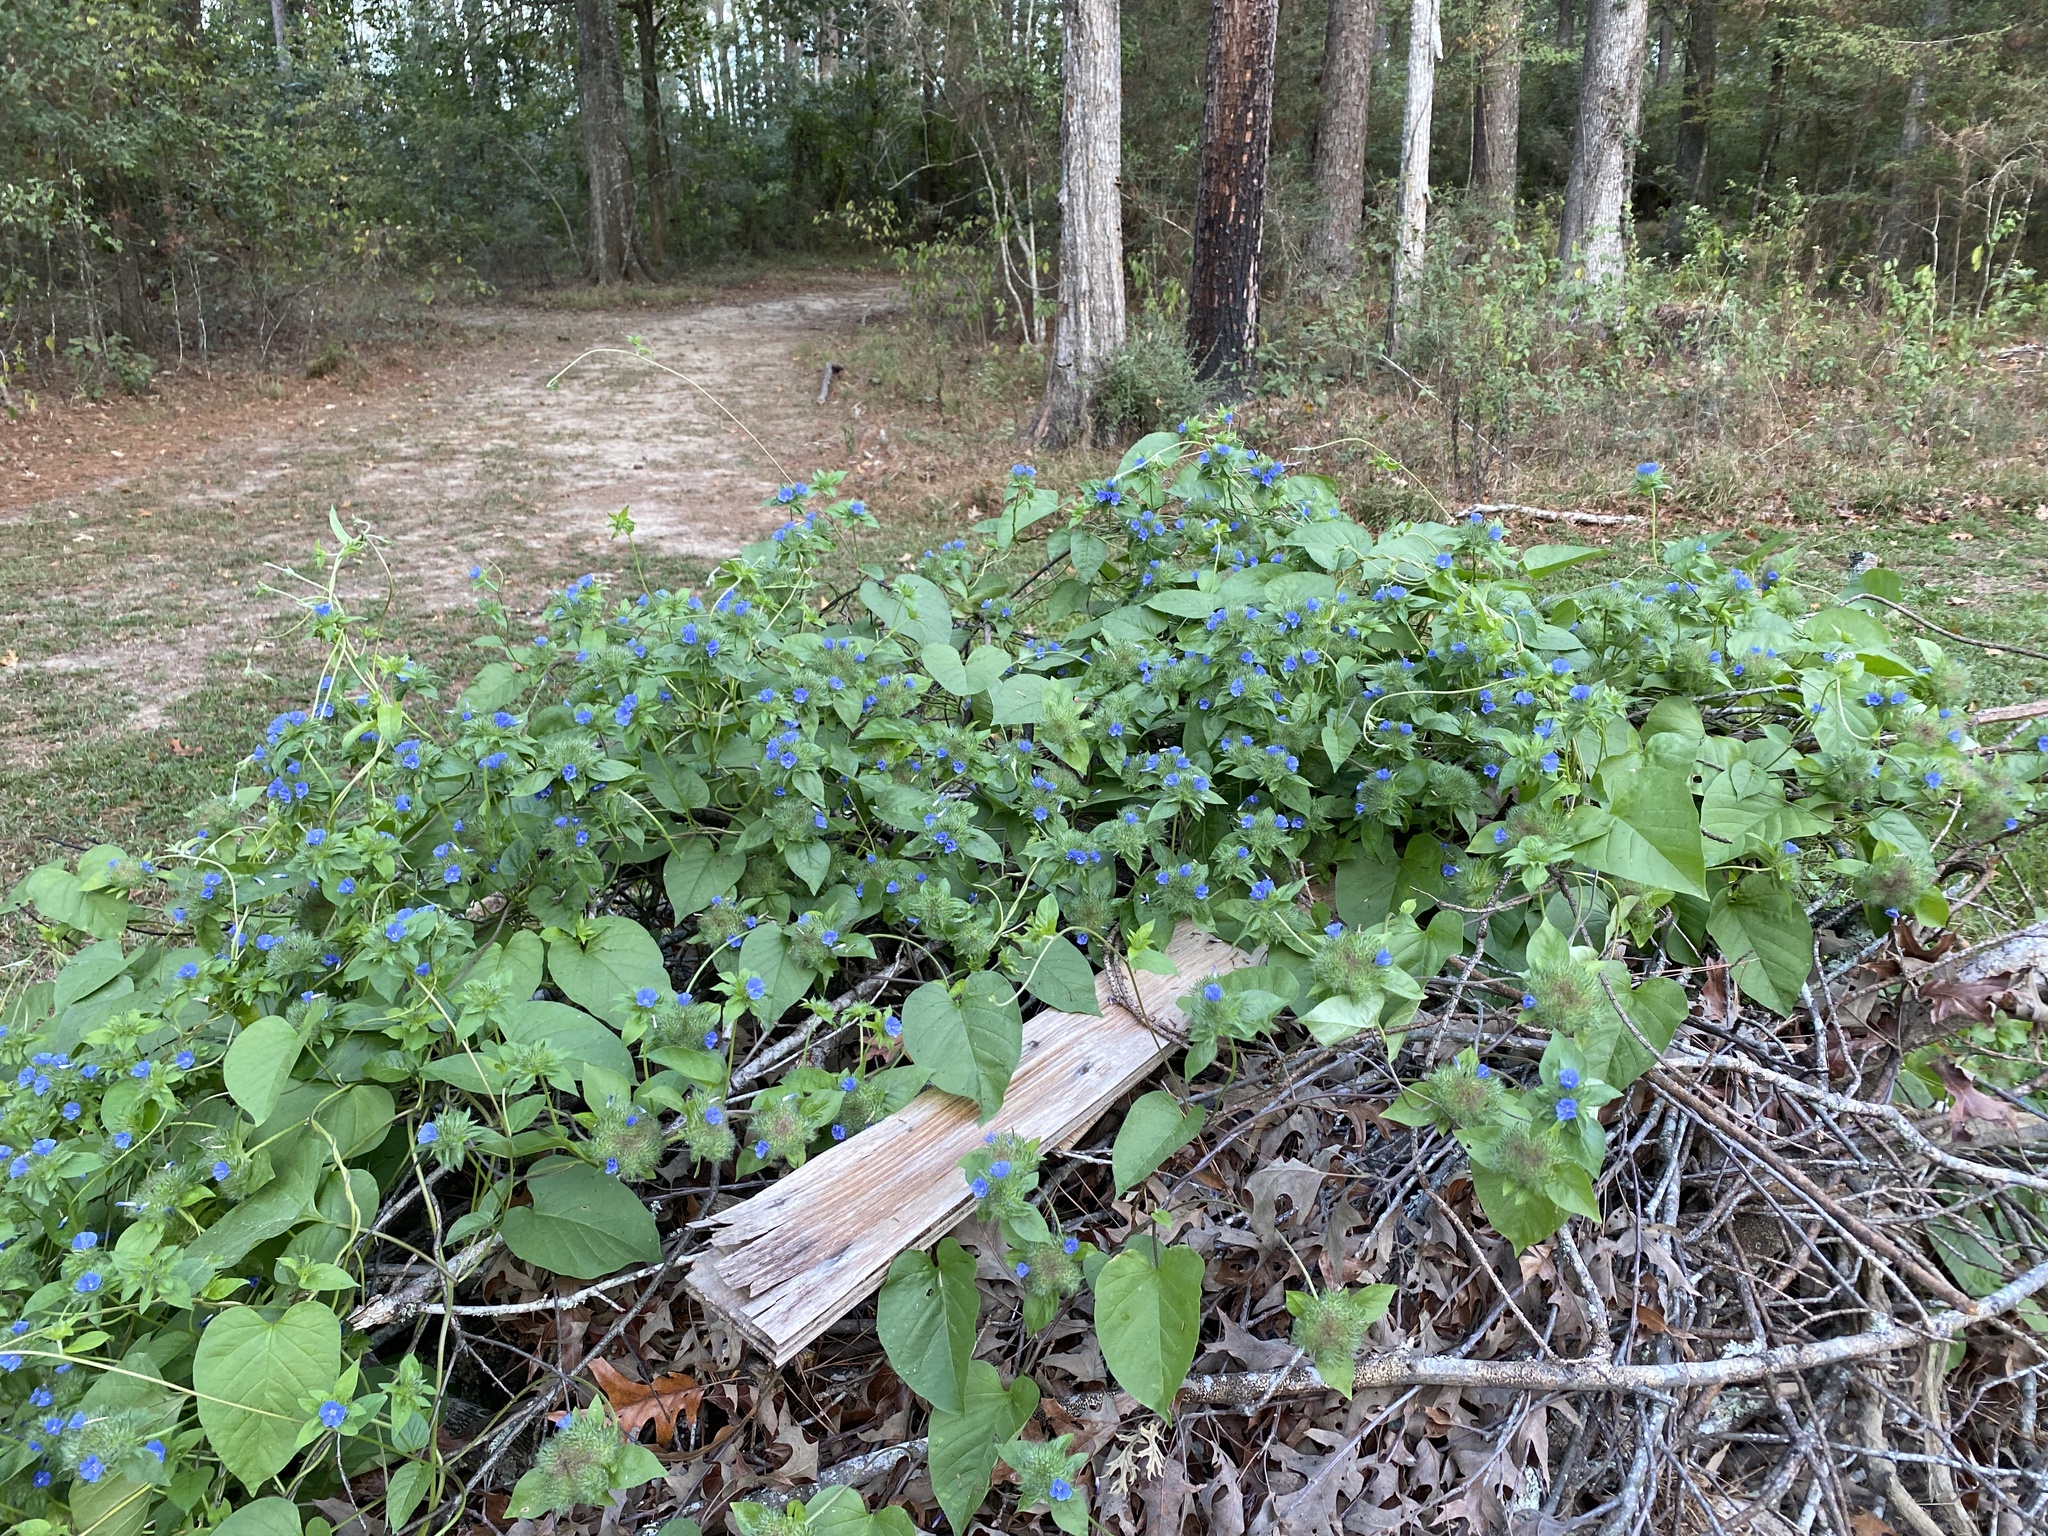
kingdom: Plantae
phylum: Tracheophyta
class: Magnoliopsida
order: Solanales
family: Convolvulaceae
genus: Jacquemontia
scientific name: Jacquemontia tamnifolia
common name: Hairy clustervine
